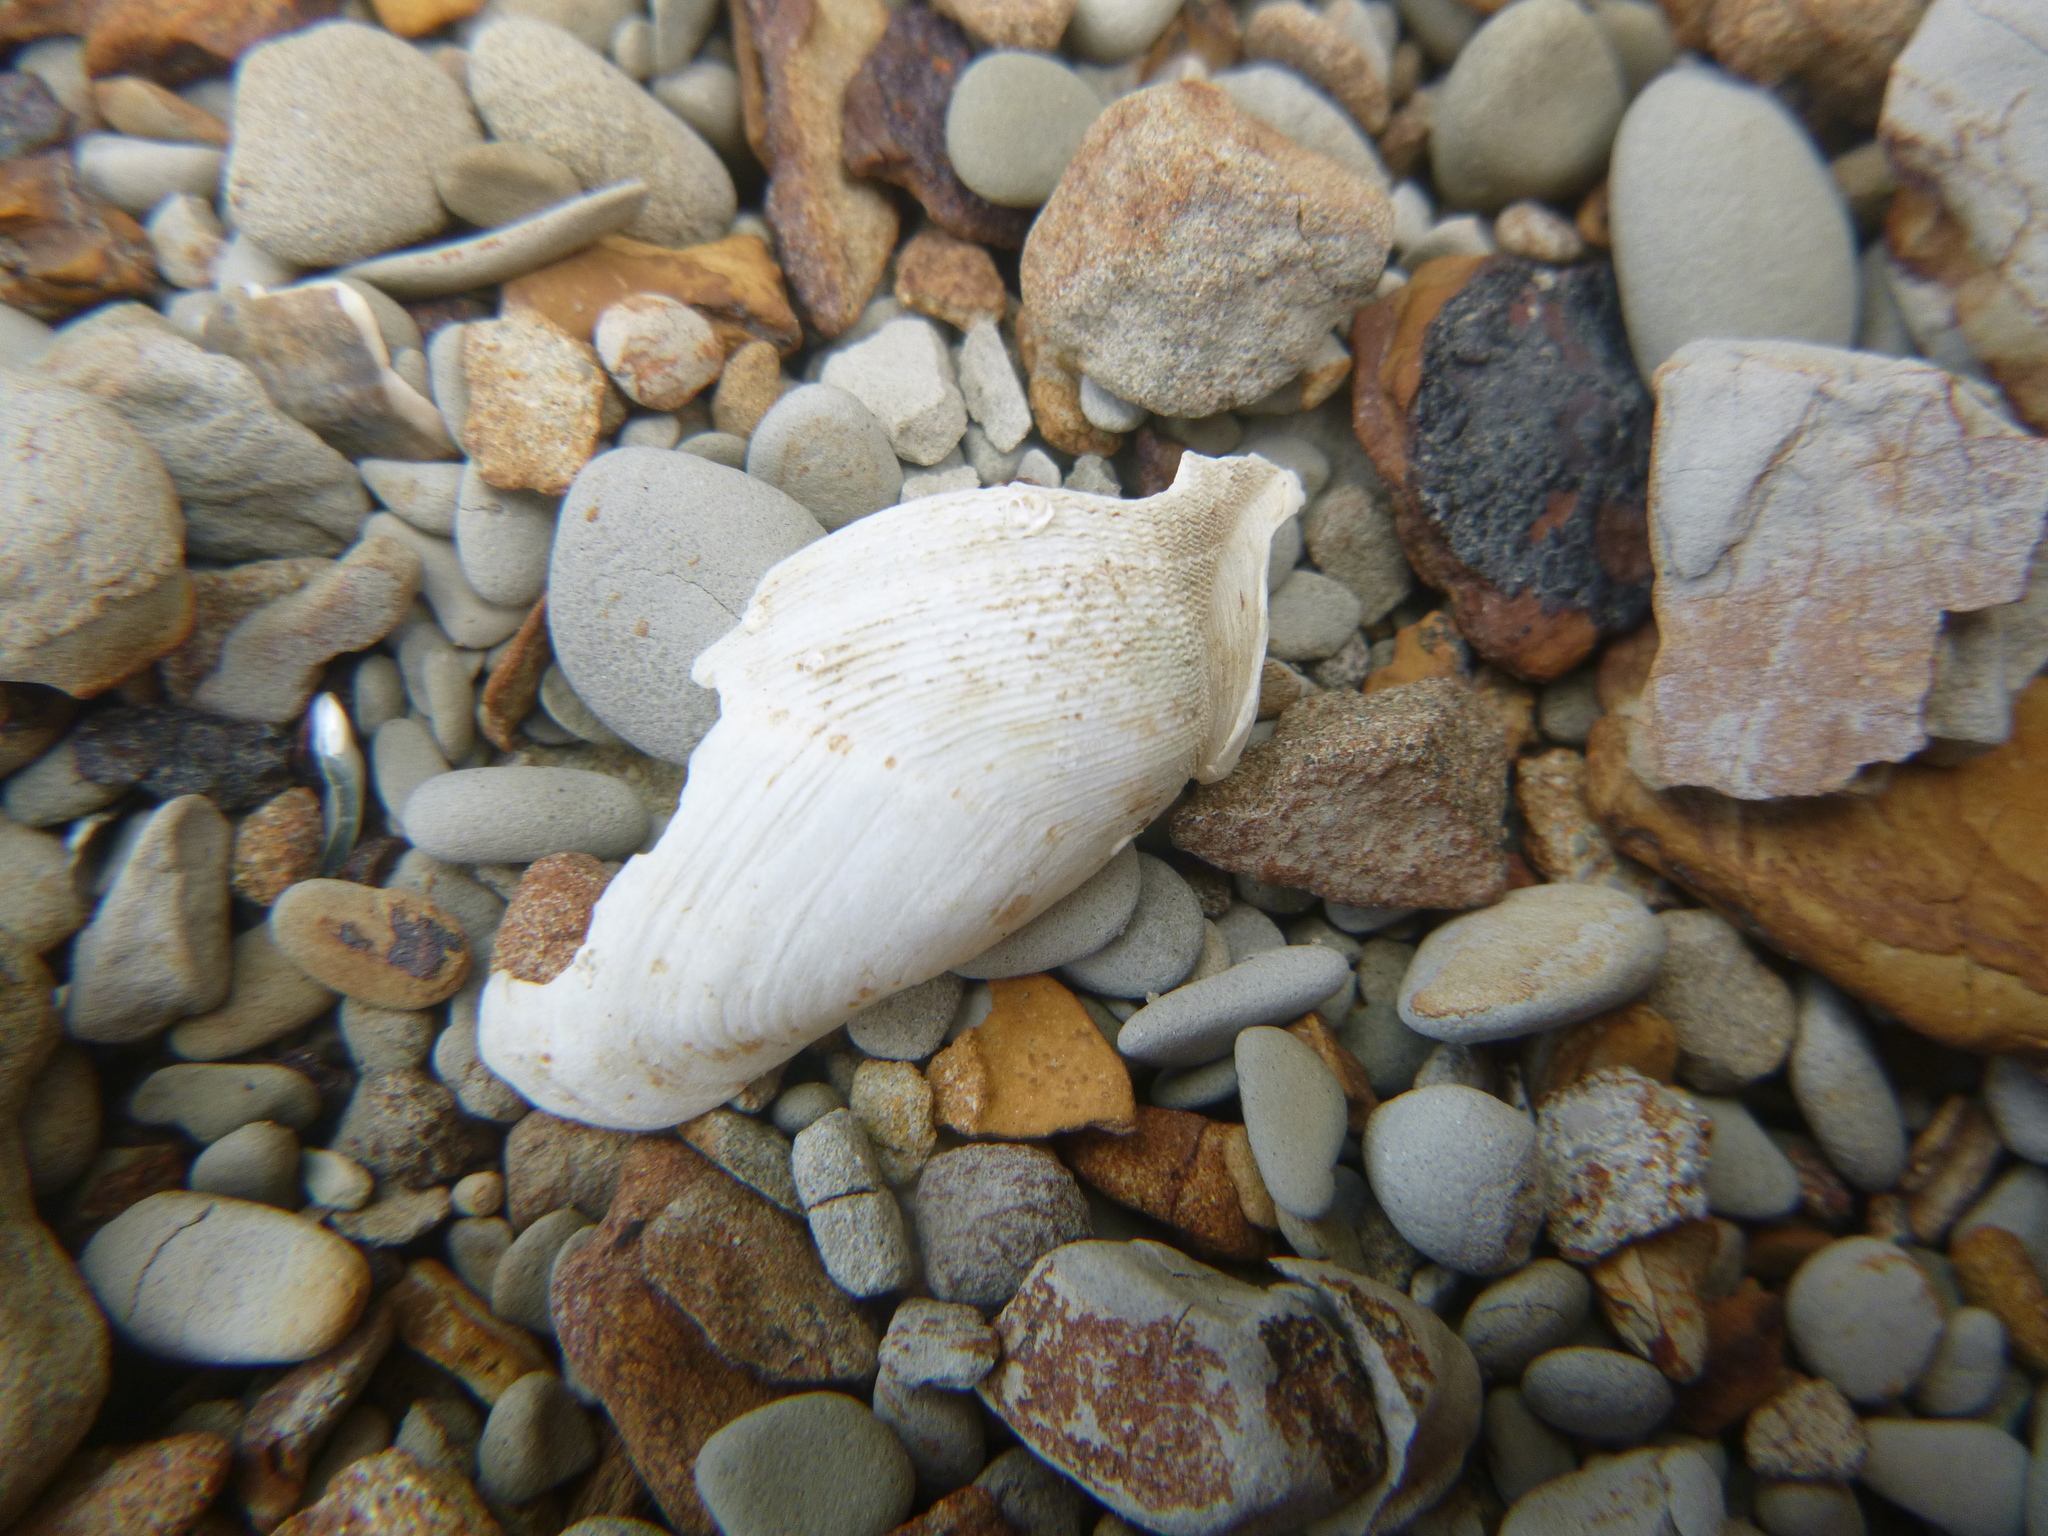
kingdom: Animalia
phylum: Mollusca
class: Bivalvia
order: Myida
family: Pholadidae
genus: Barnea
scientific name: Barnea similis
